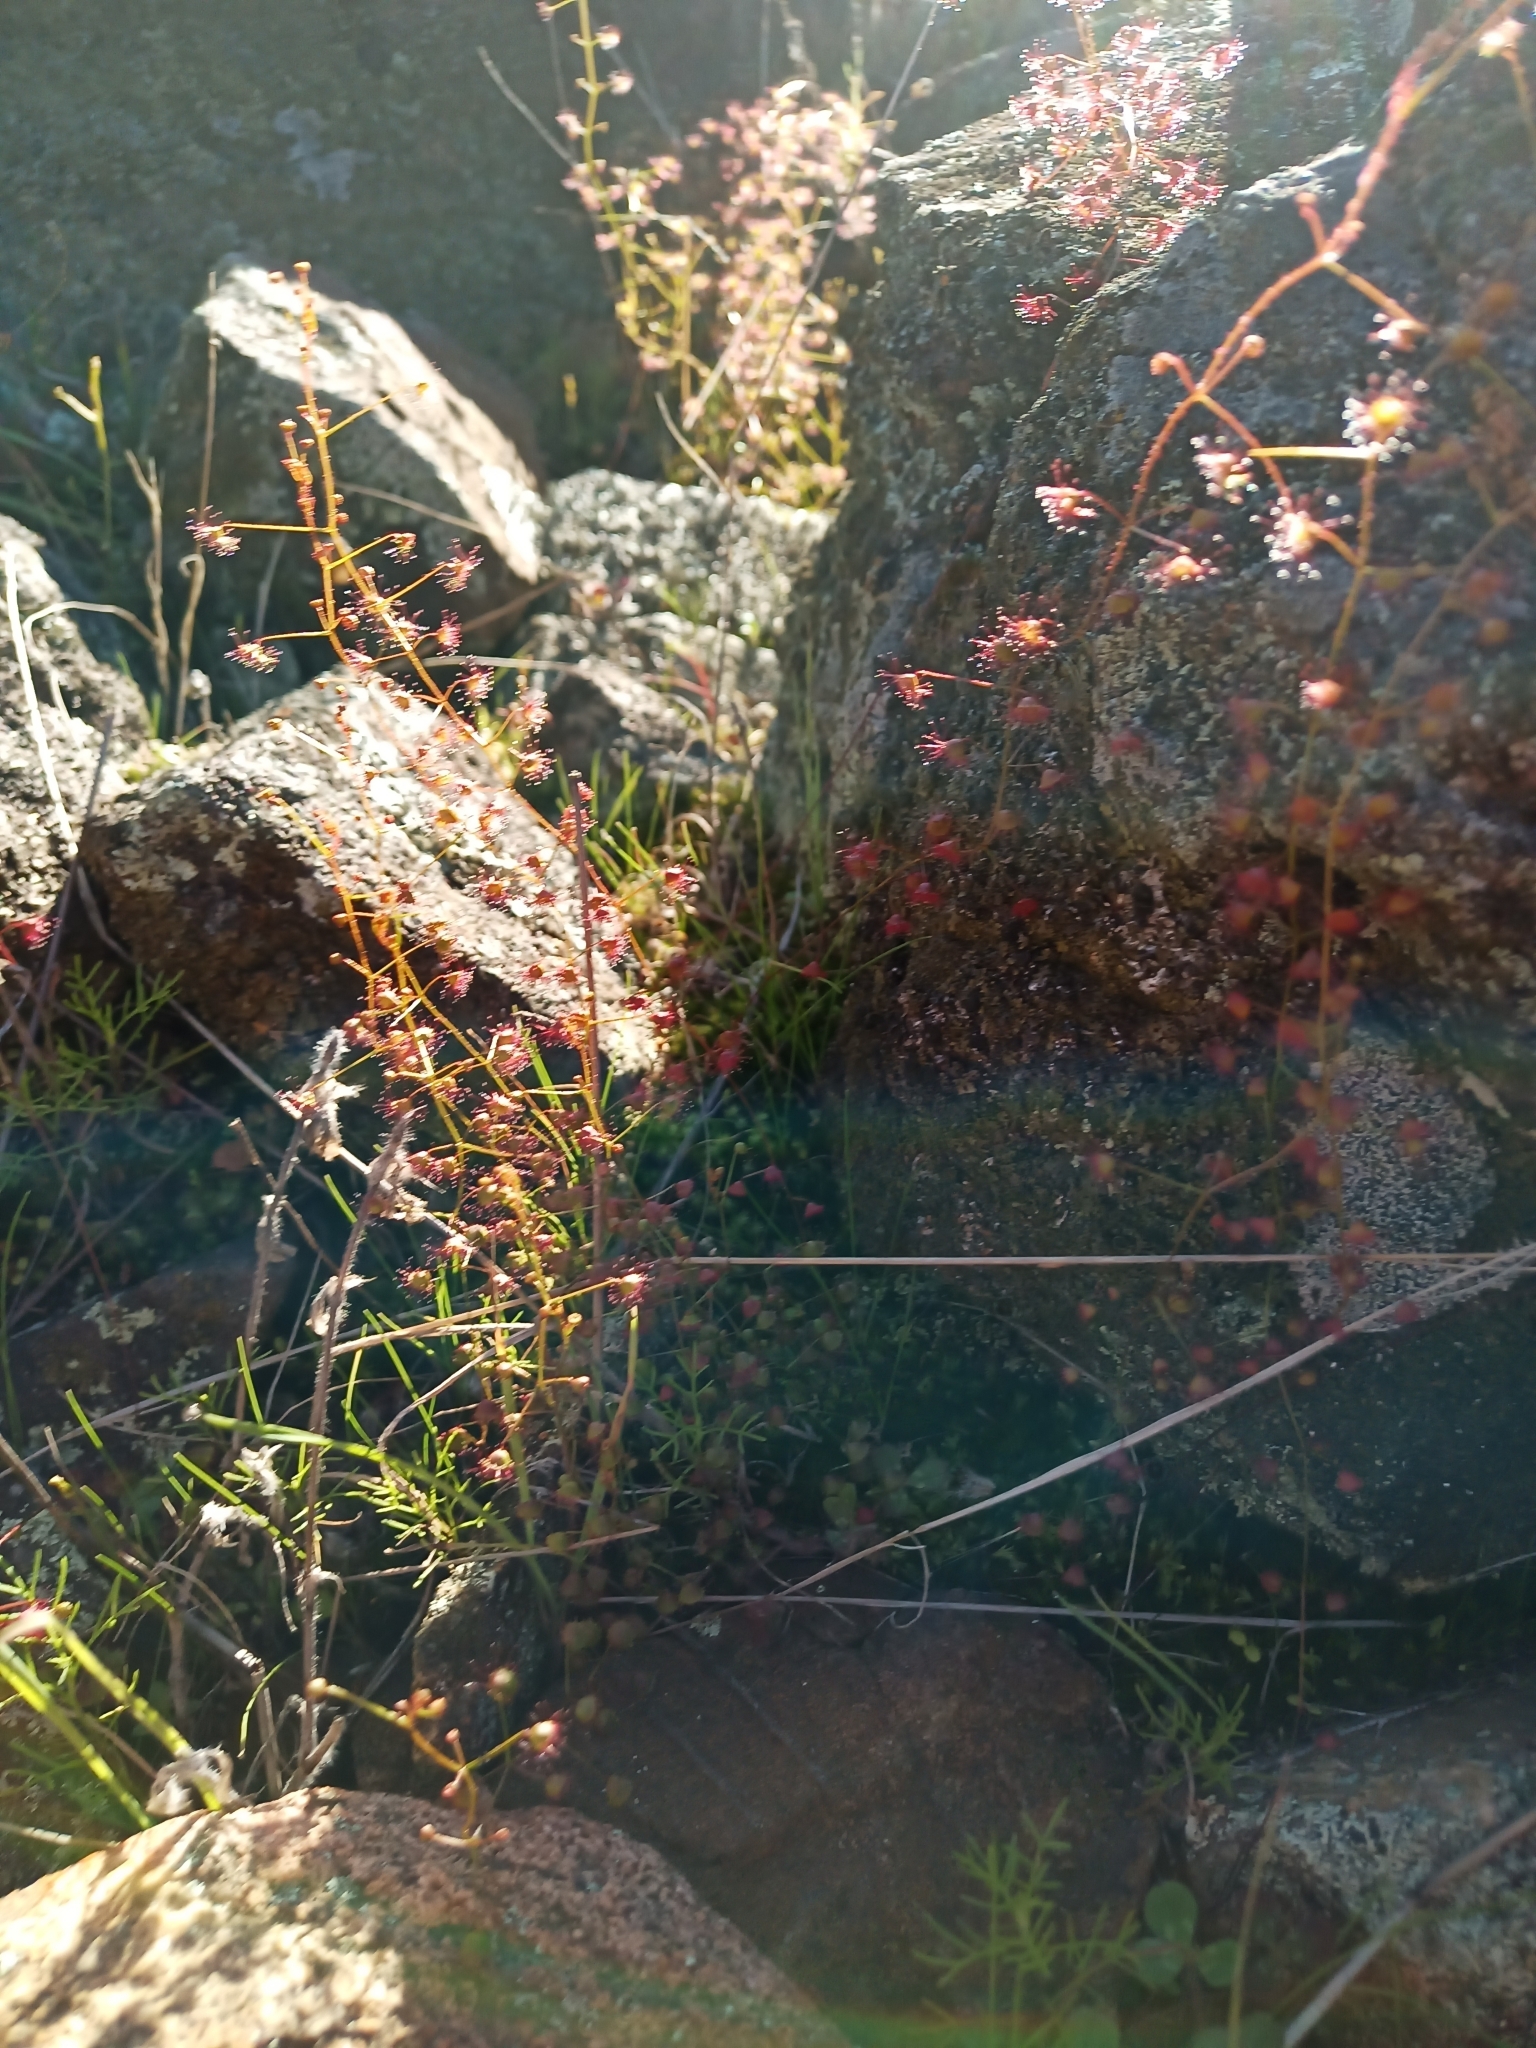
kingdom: Plantae
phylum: Tracheophyta
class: Magnoliopsida
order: Caryophyllales
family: Droseraceae
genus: Drosera
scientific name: Drosera macrantha
